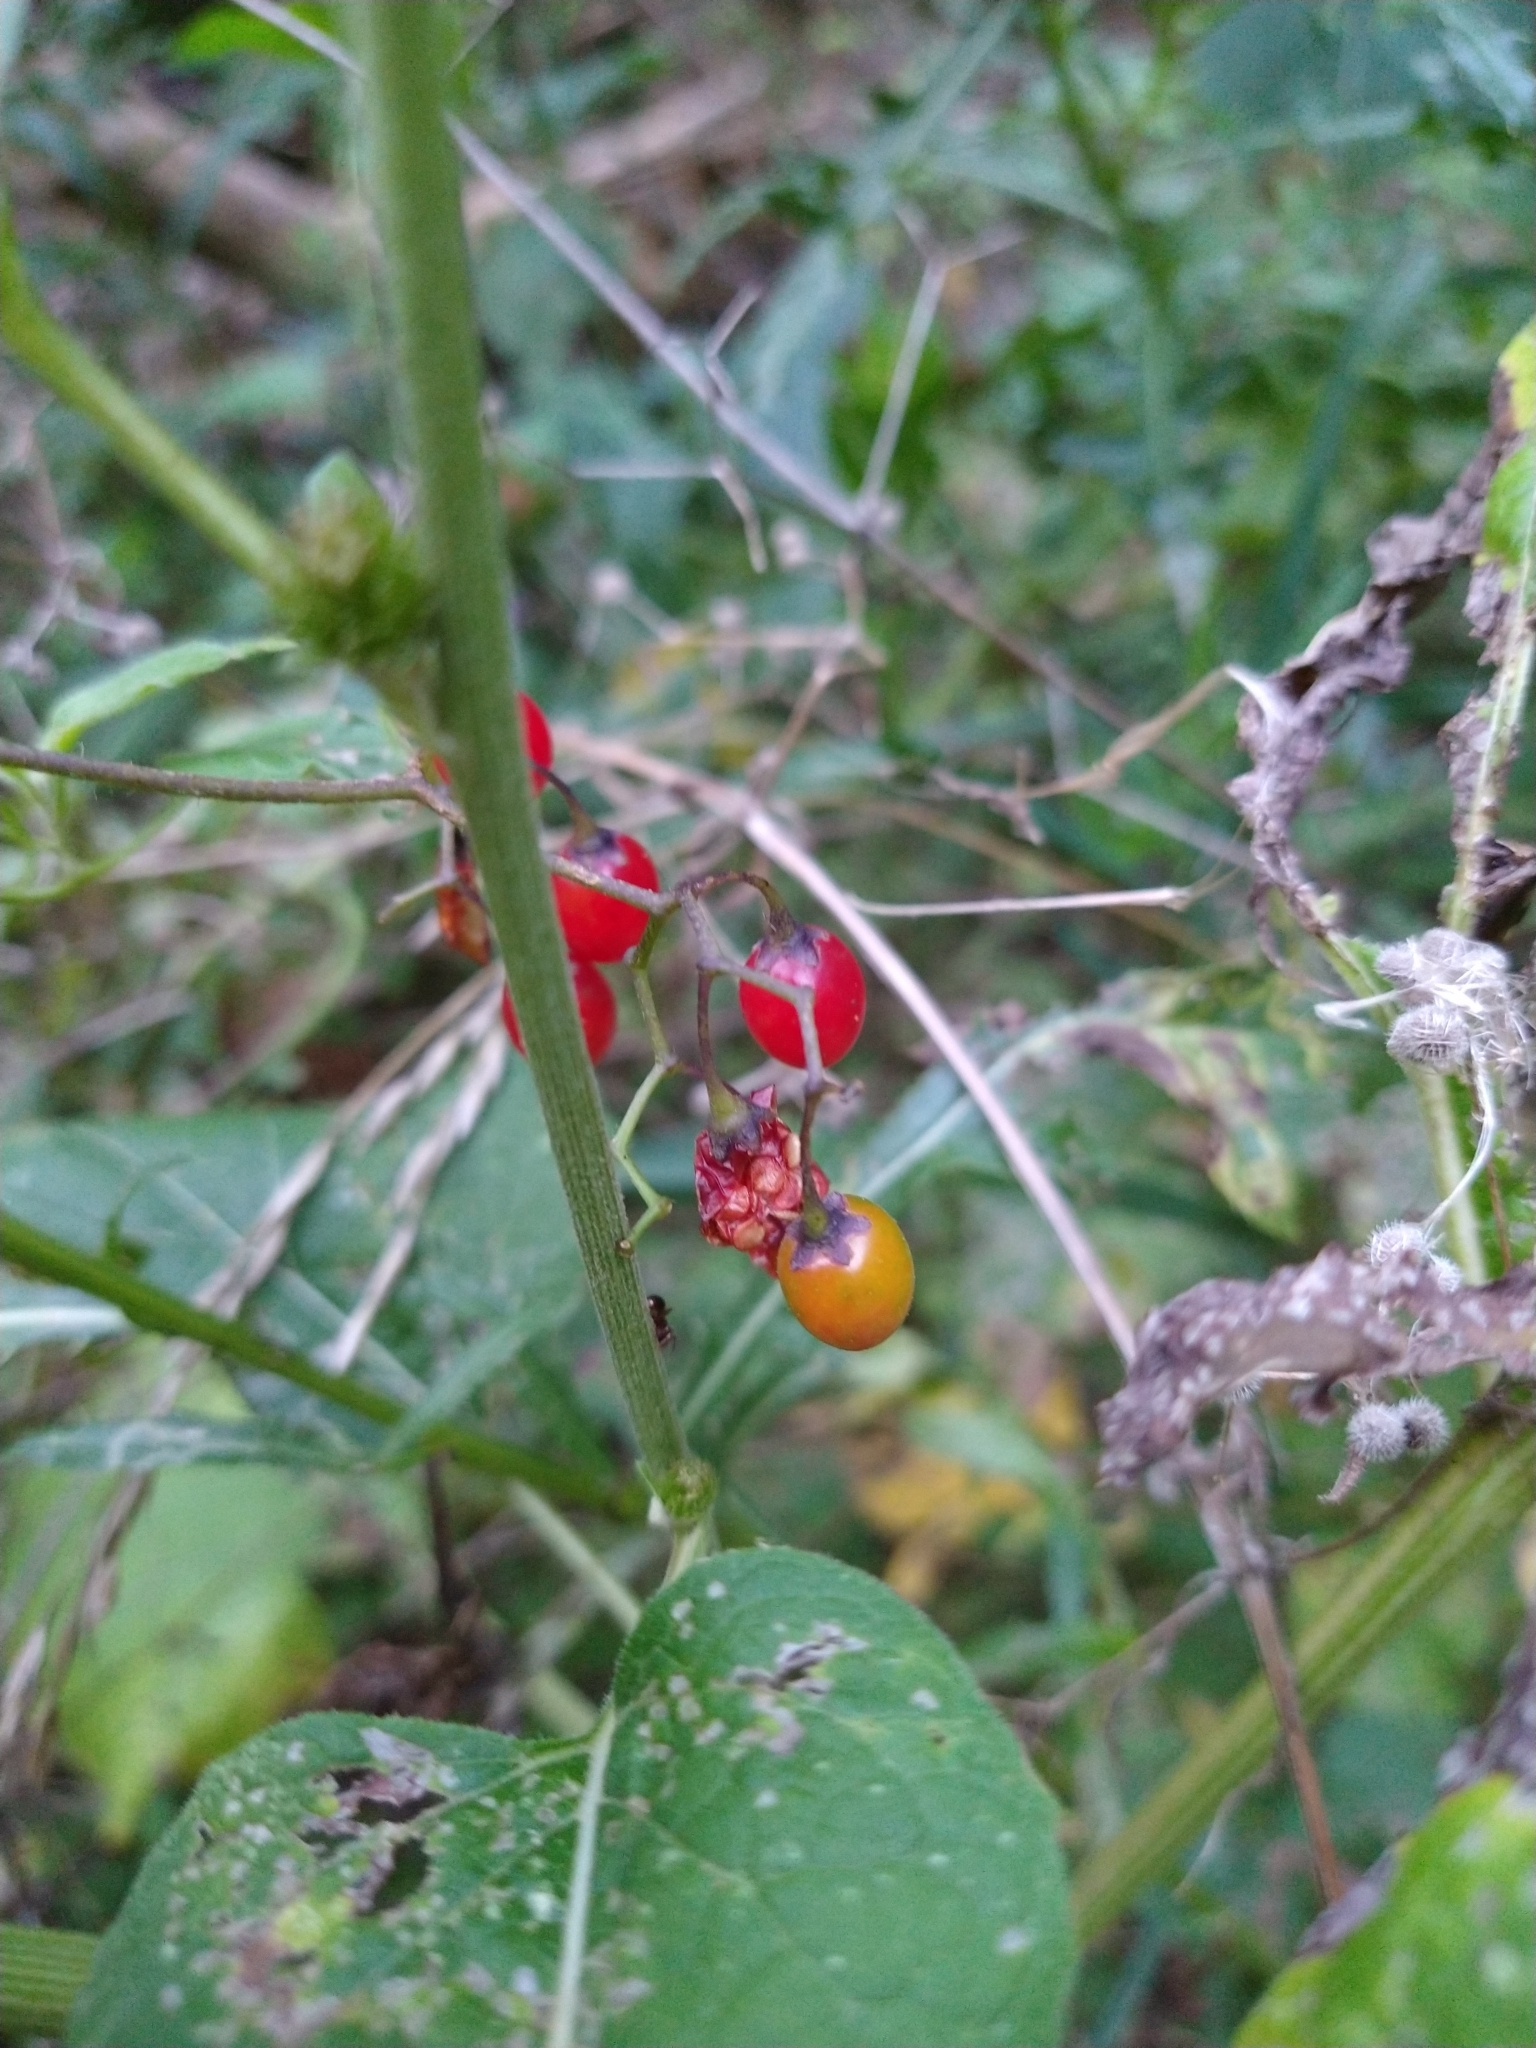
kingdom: Plantae
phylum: Tracheophyta
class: Magnoliopsida
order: Solanales
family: Solanaceae
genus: Solanum
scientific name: Solanum dulcamara
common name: Climbing nightshade
